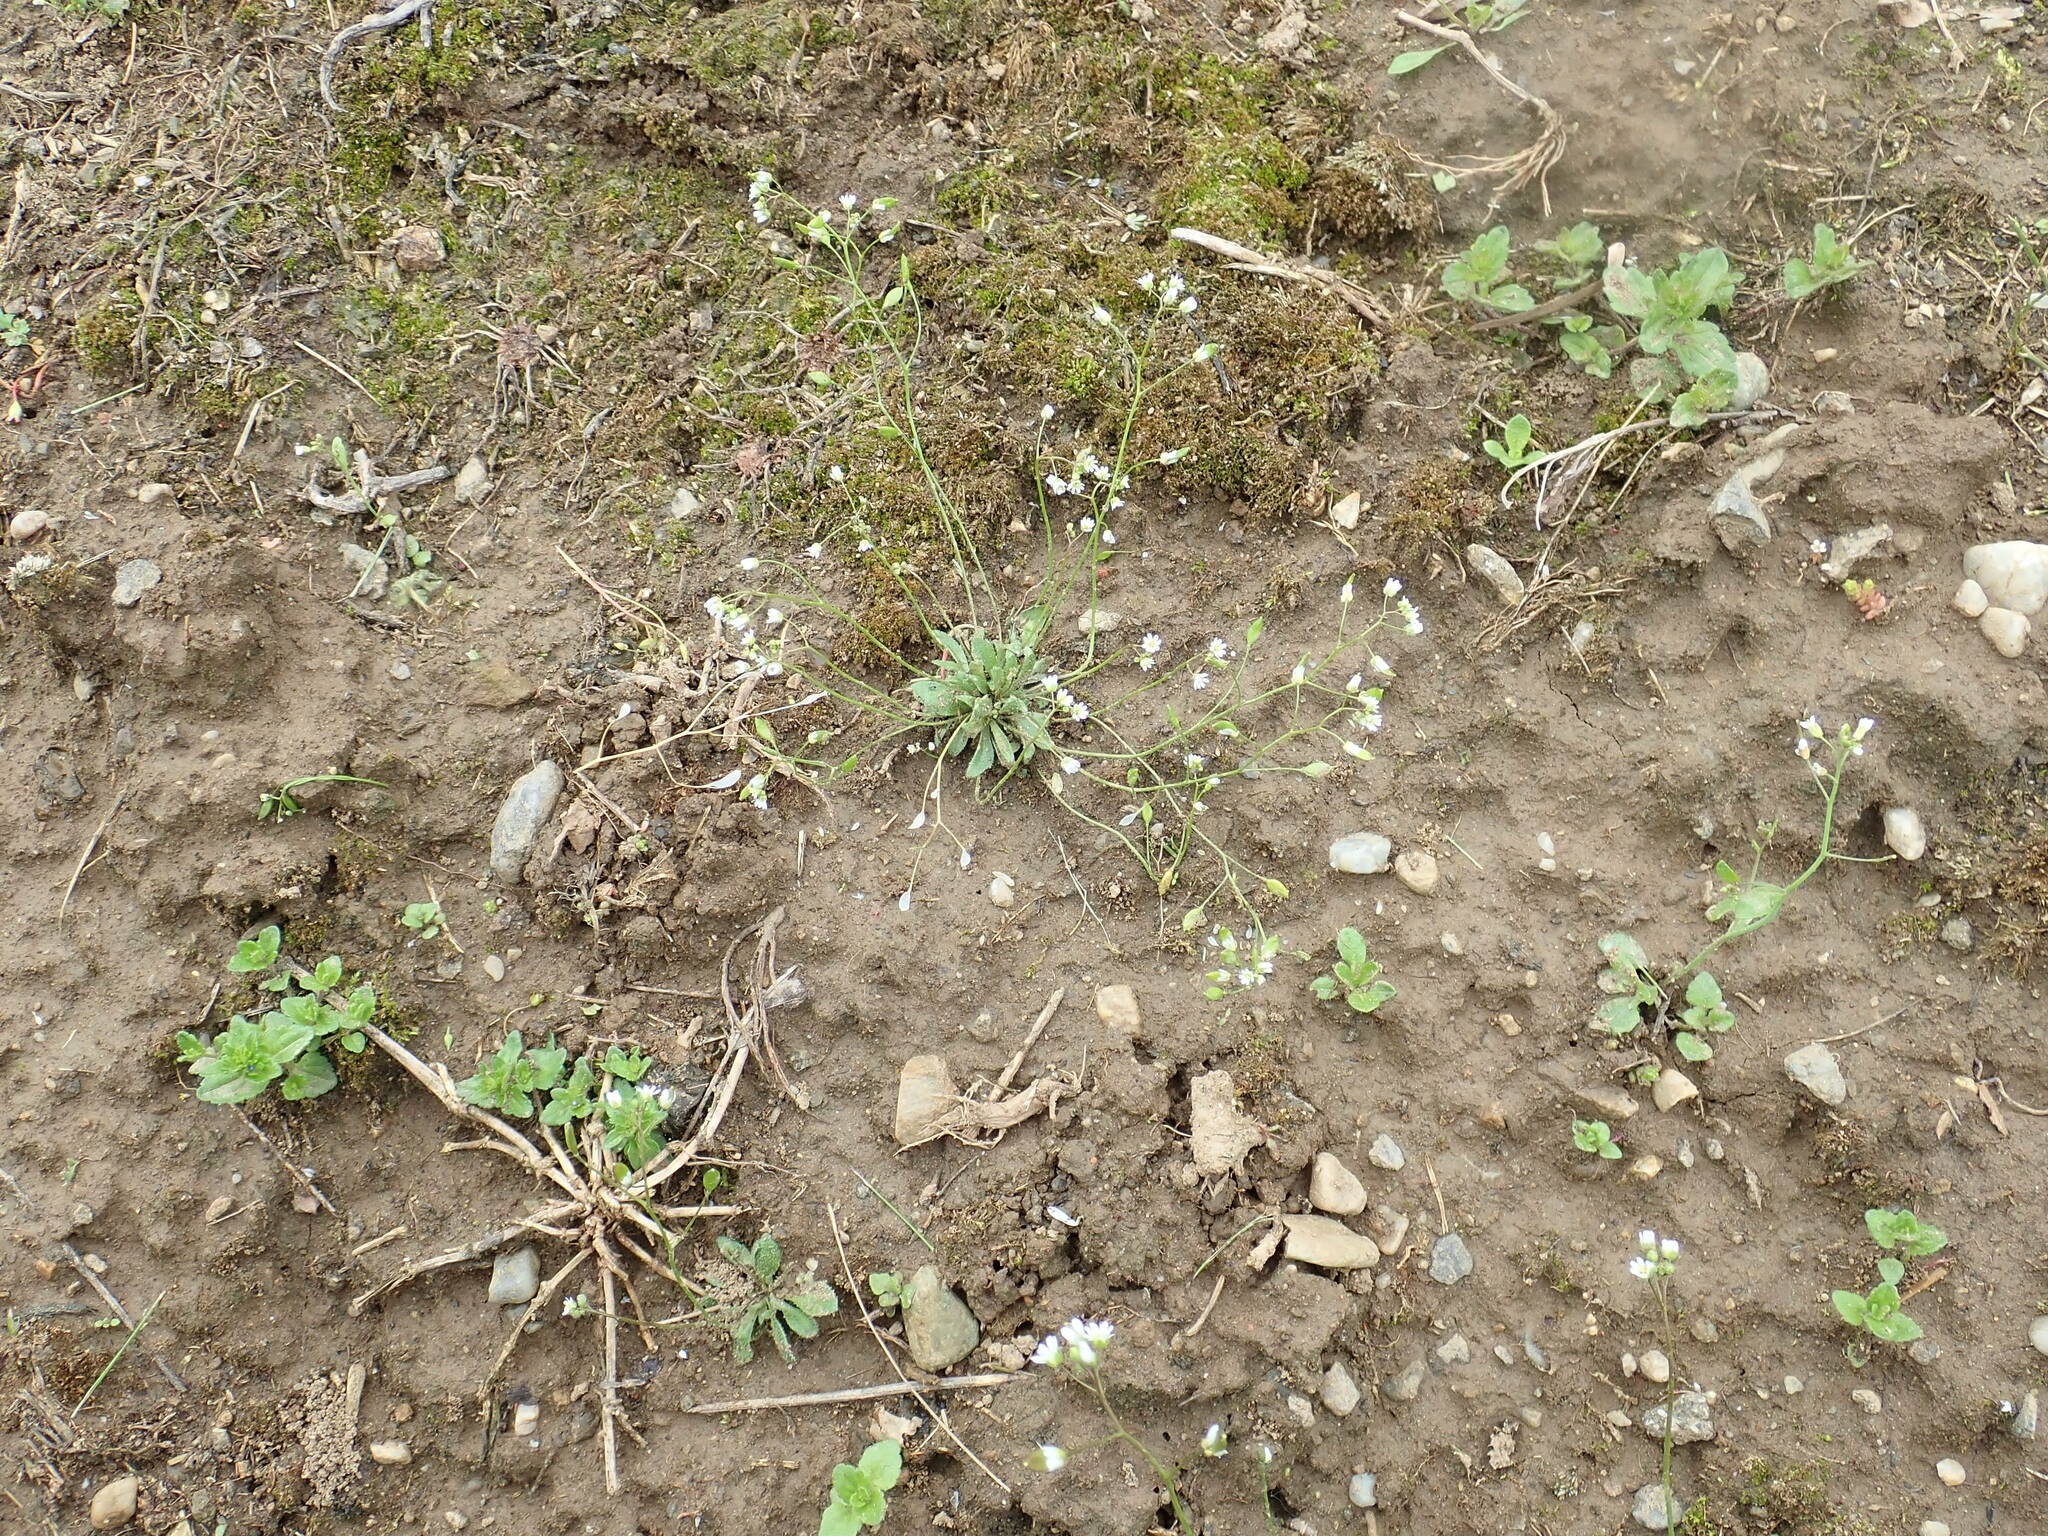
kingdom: Plantae
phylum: Tracheophyta
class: Magnoliopsida
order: Brassicales
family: Brassicaceae
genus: Draba
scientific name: Draba verna
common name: Spring draba
